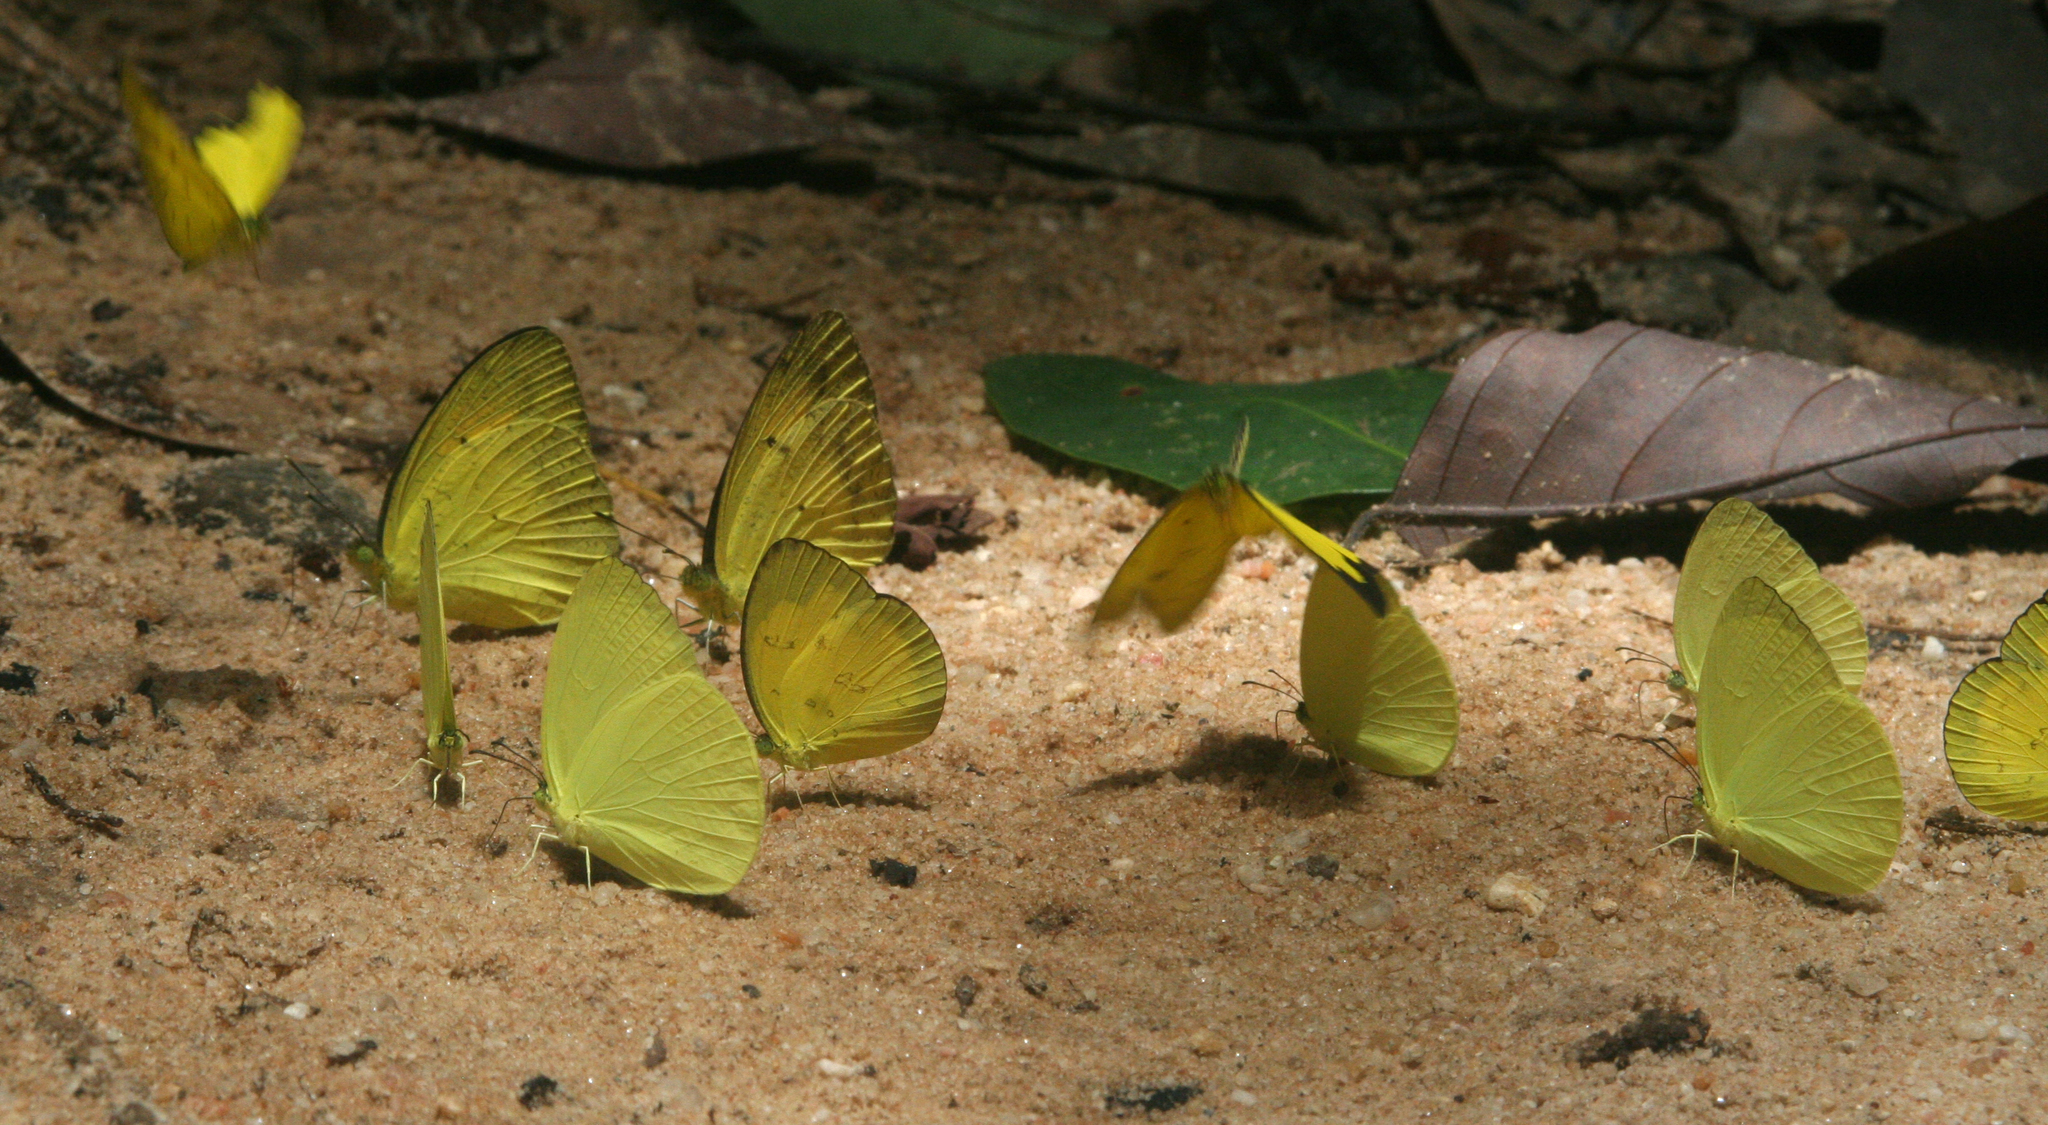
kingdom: Animalia
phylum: Arthropoda
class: Insecta
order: Lepidoptera
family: Pieridae
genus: Ixias
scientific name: Ixias pyrene
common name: Yellow orange tip
